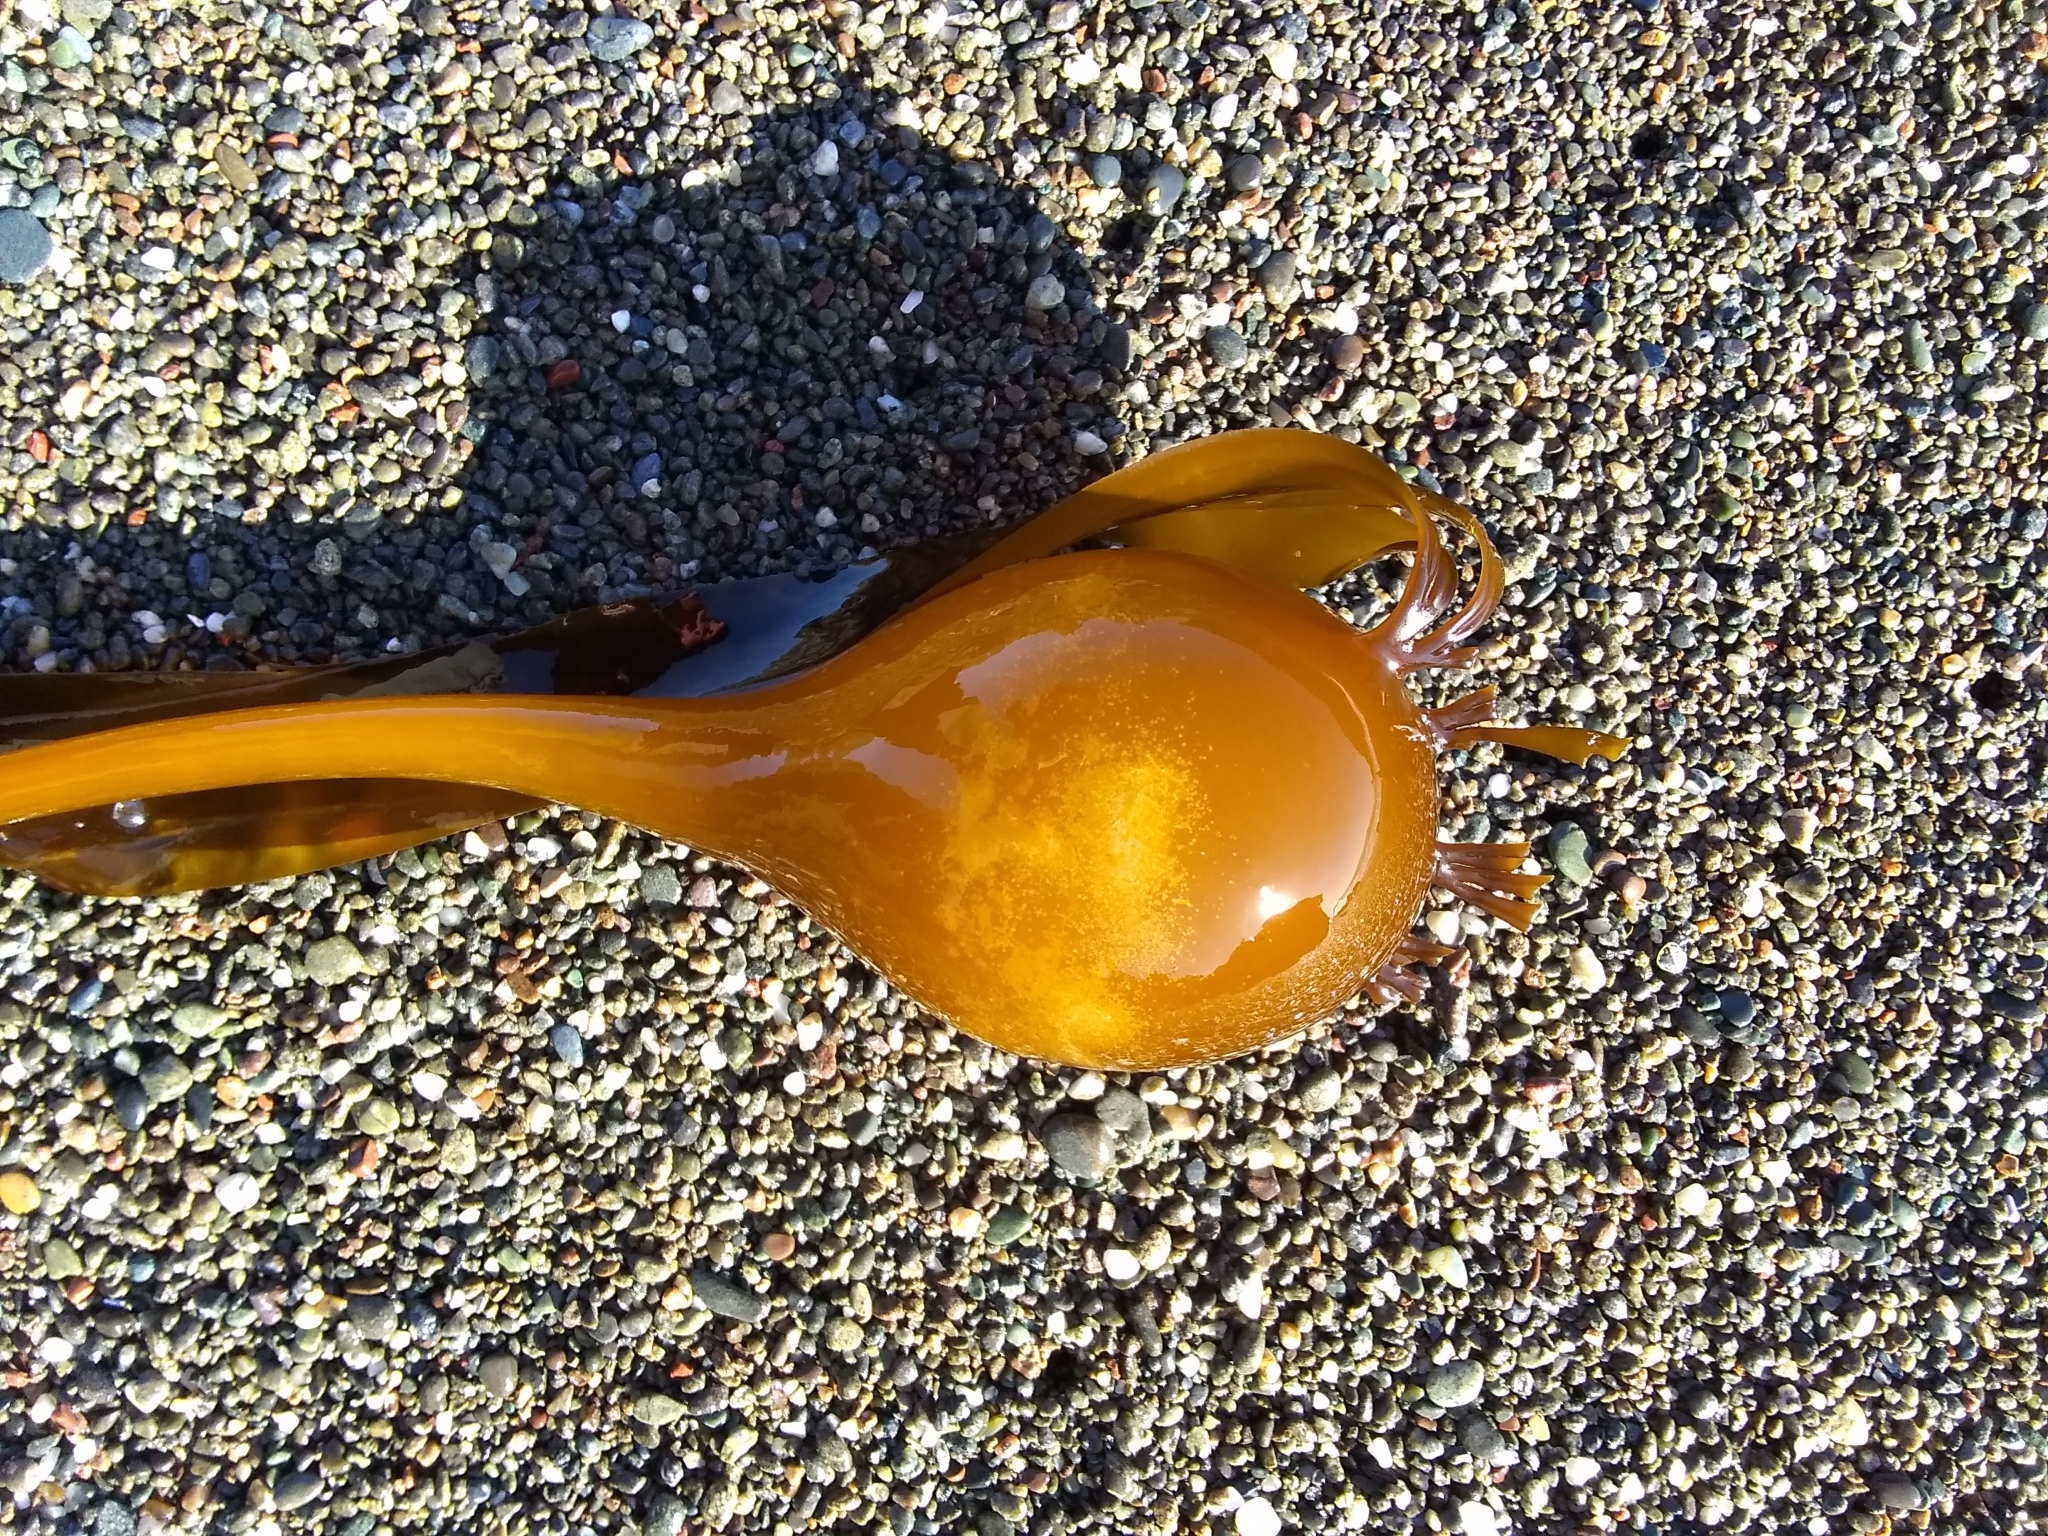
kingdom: Chromista
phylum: Ochrophyta
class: Phaeophyceae
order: Laminariales
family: Laminariaceae
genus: Nereocystis
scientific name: Nereocystis luetkeana
